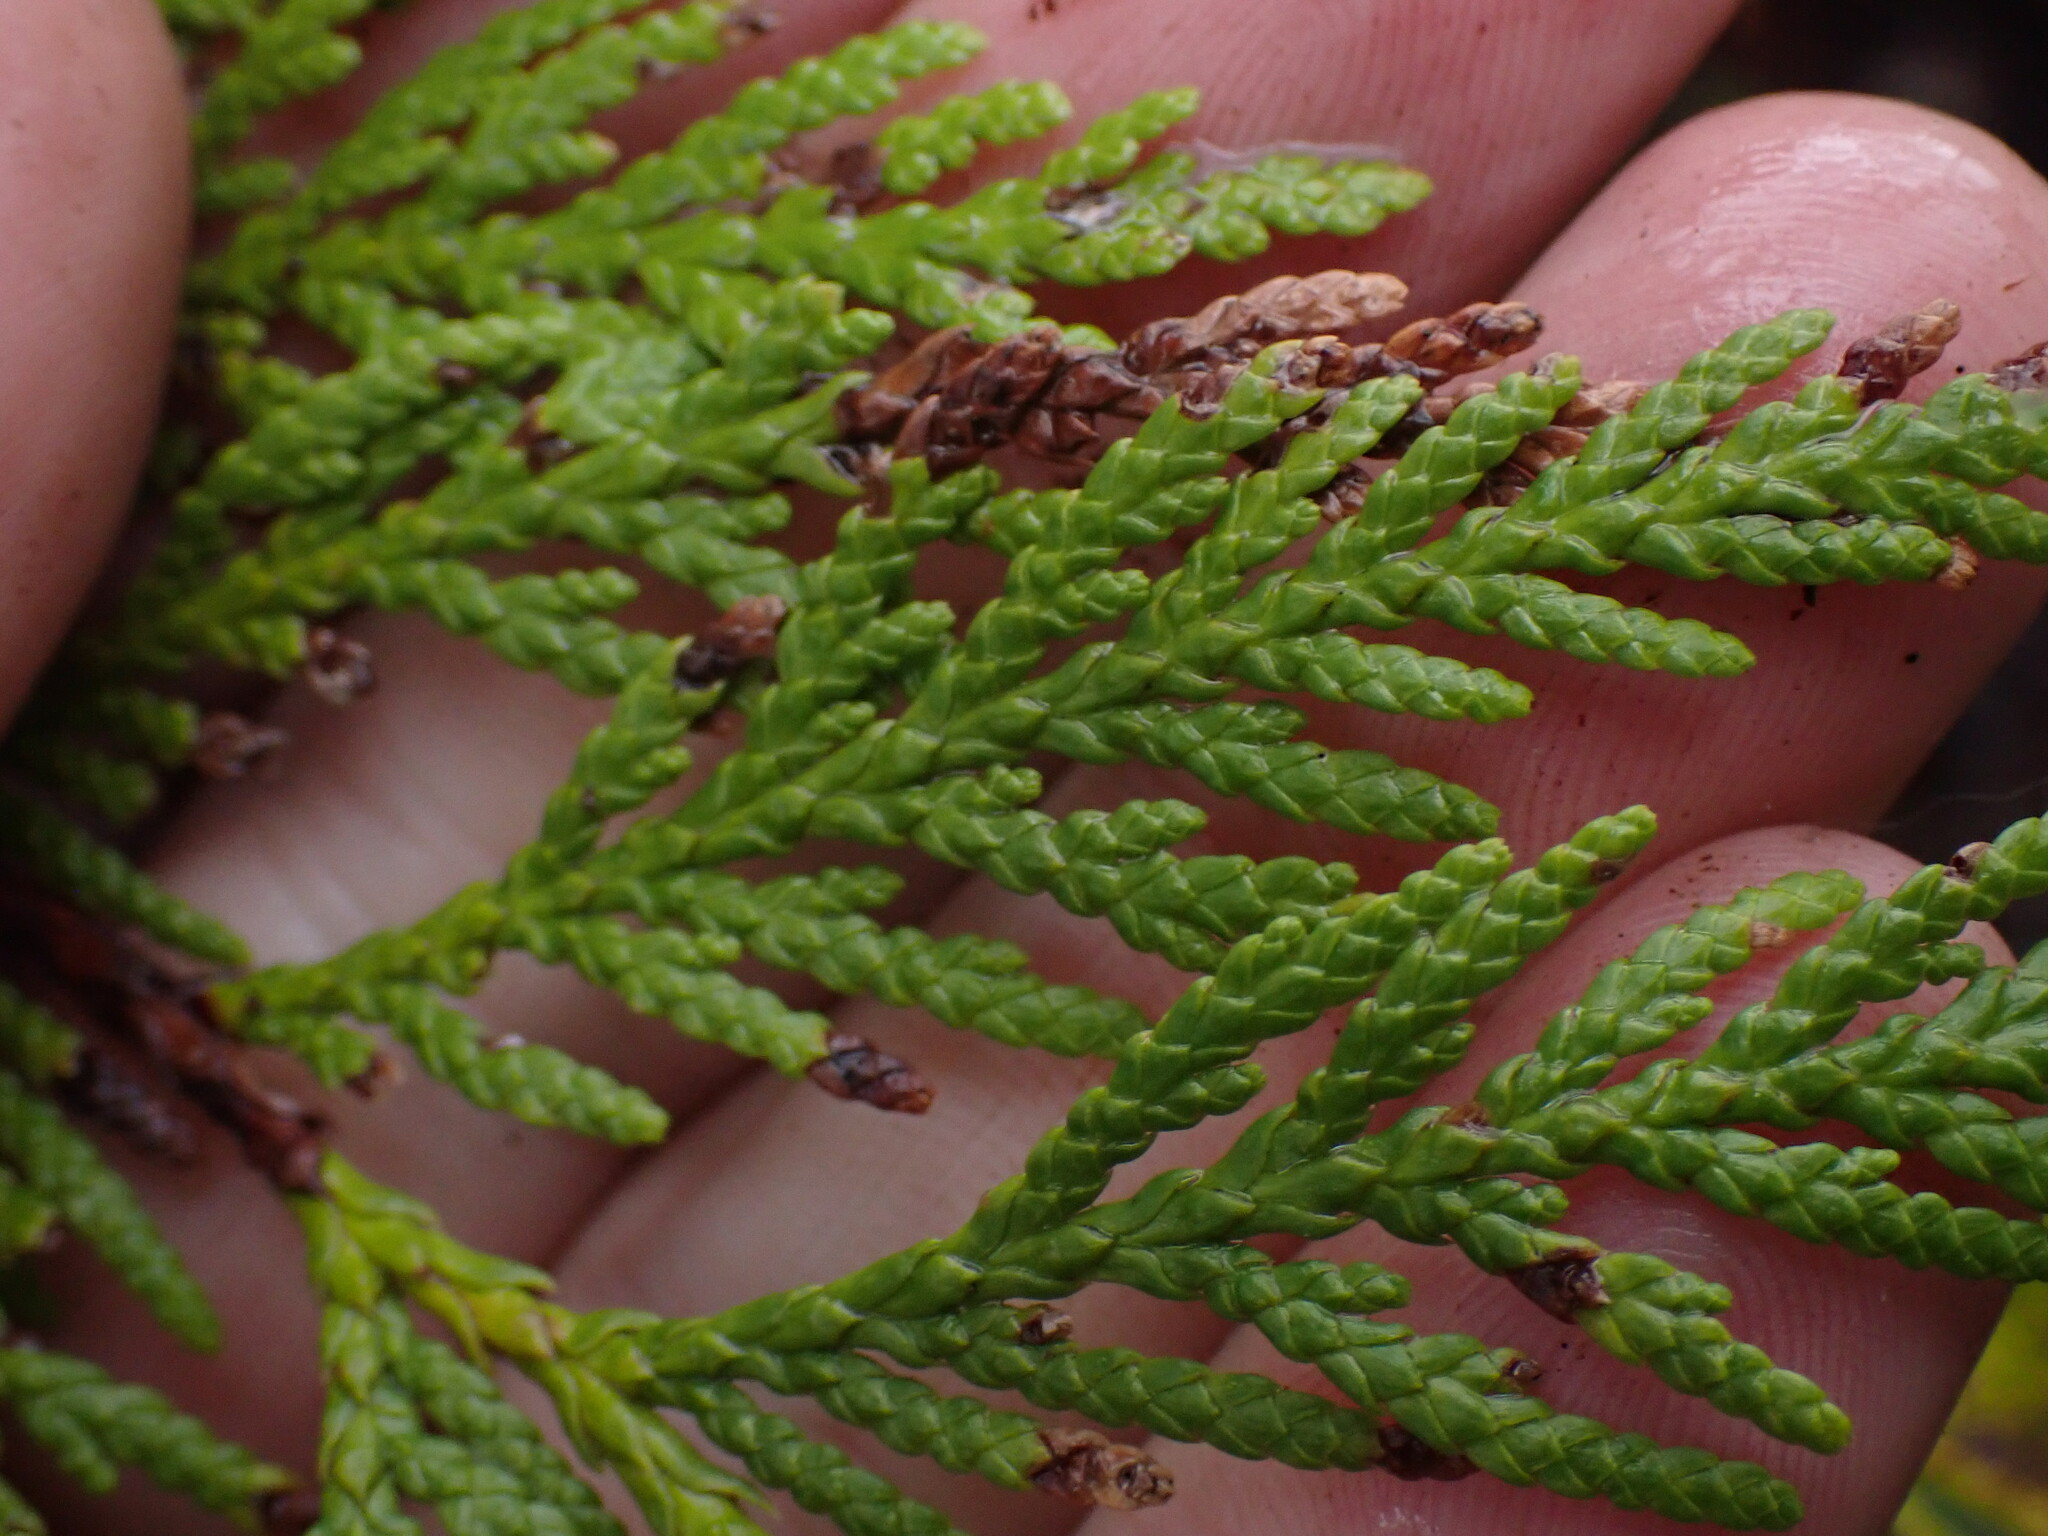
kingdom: Plantae
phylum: Tracheophyta
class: Pinopsida
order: Pinales
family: Cupressaceae
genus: Thuja
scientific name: Thuja plicata
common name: Western red-cedar
